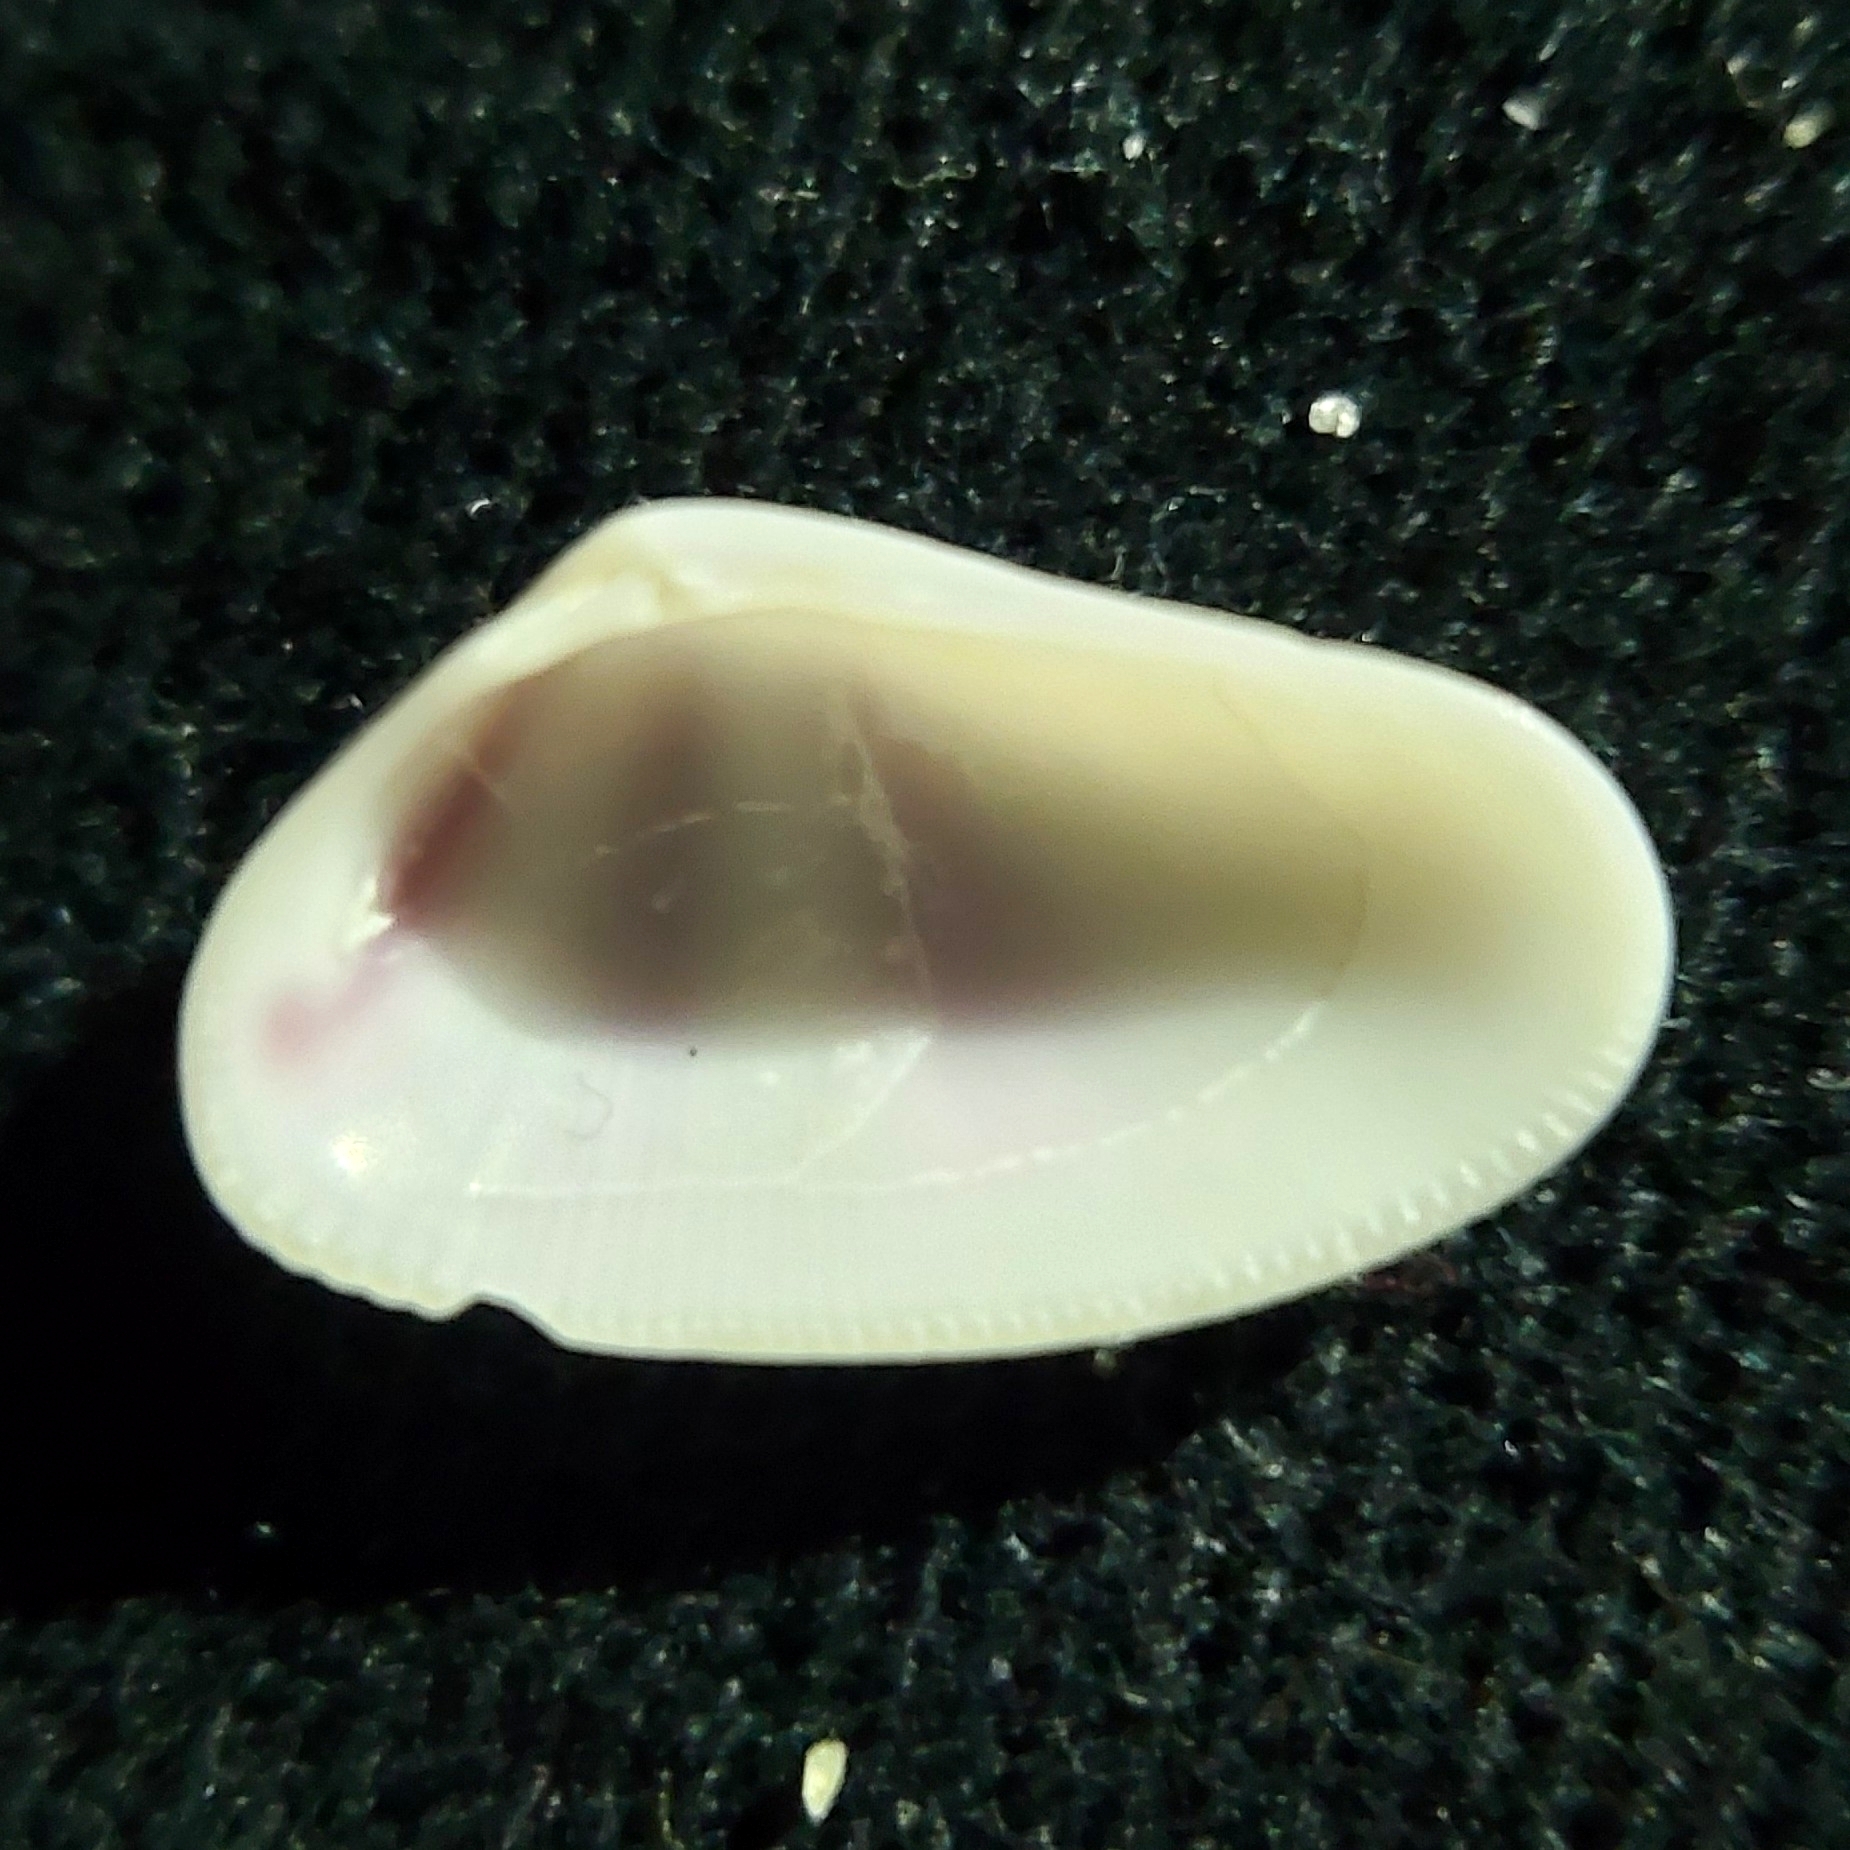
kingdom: Animalia
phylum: Mollusca
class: Bivalvia
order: Cardiida
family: Donacidae
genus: Donax
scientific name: Donax variabilis
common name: Butterfly shell
